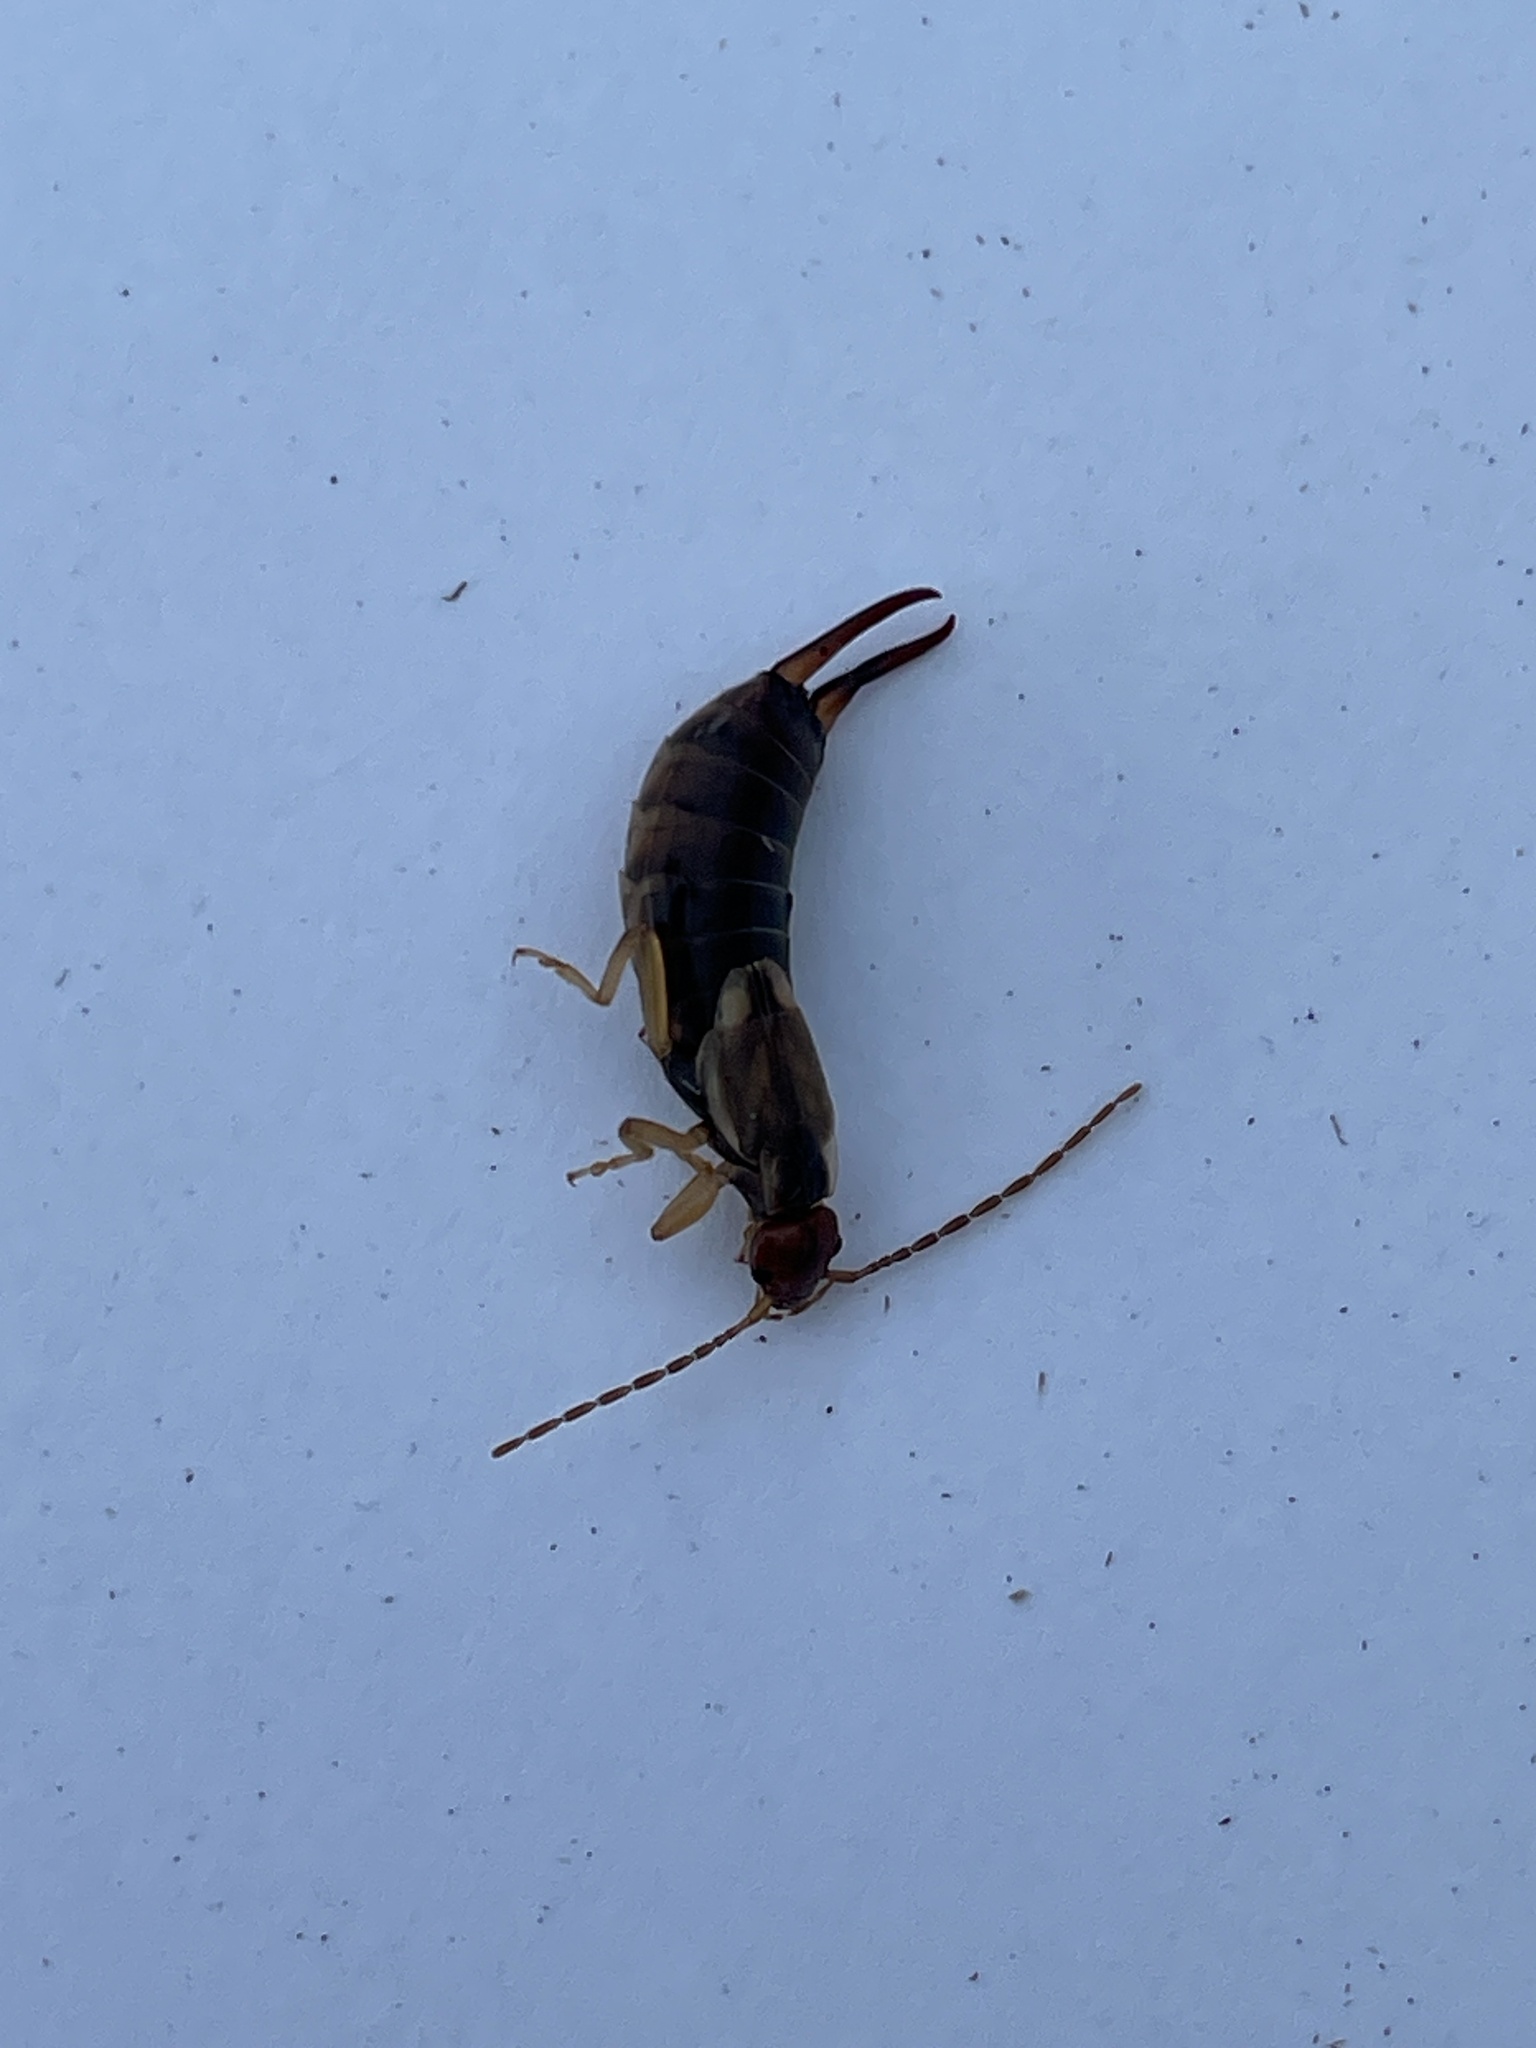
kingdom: Animalia
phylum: Arthropoda
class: Insecta
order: Dermaptera
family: Forficulidae
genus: Forficula
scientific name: Forficula
